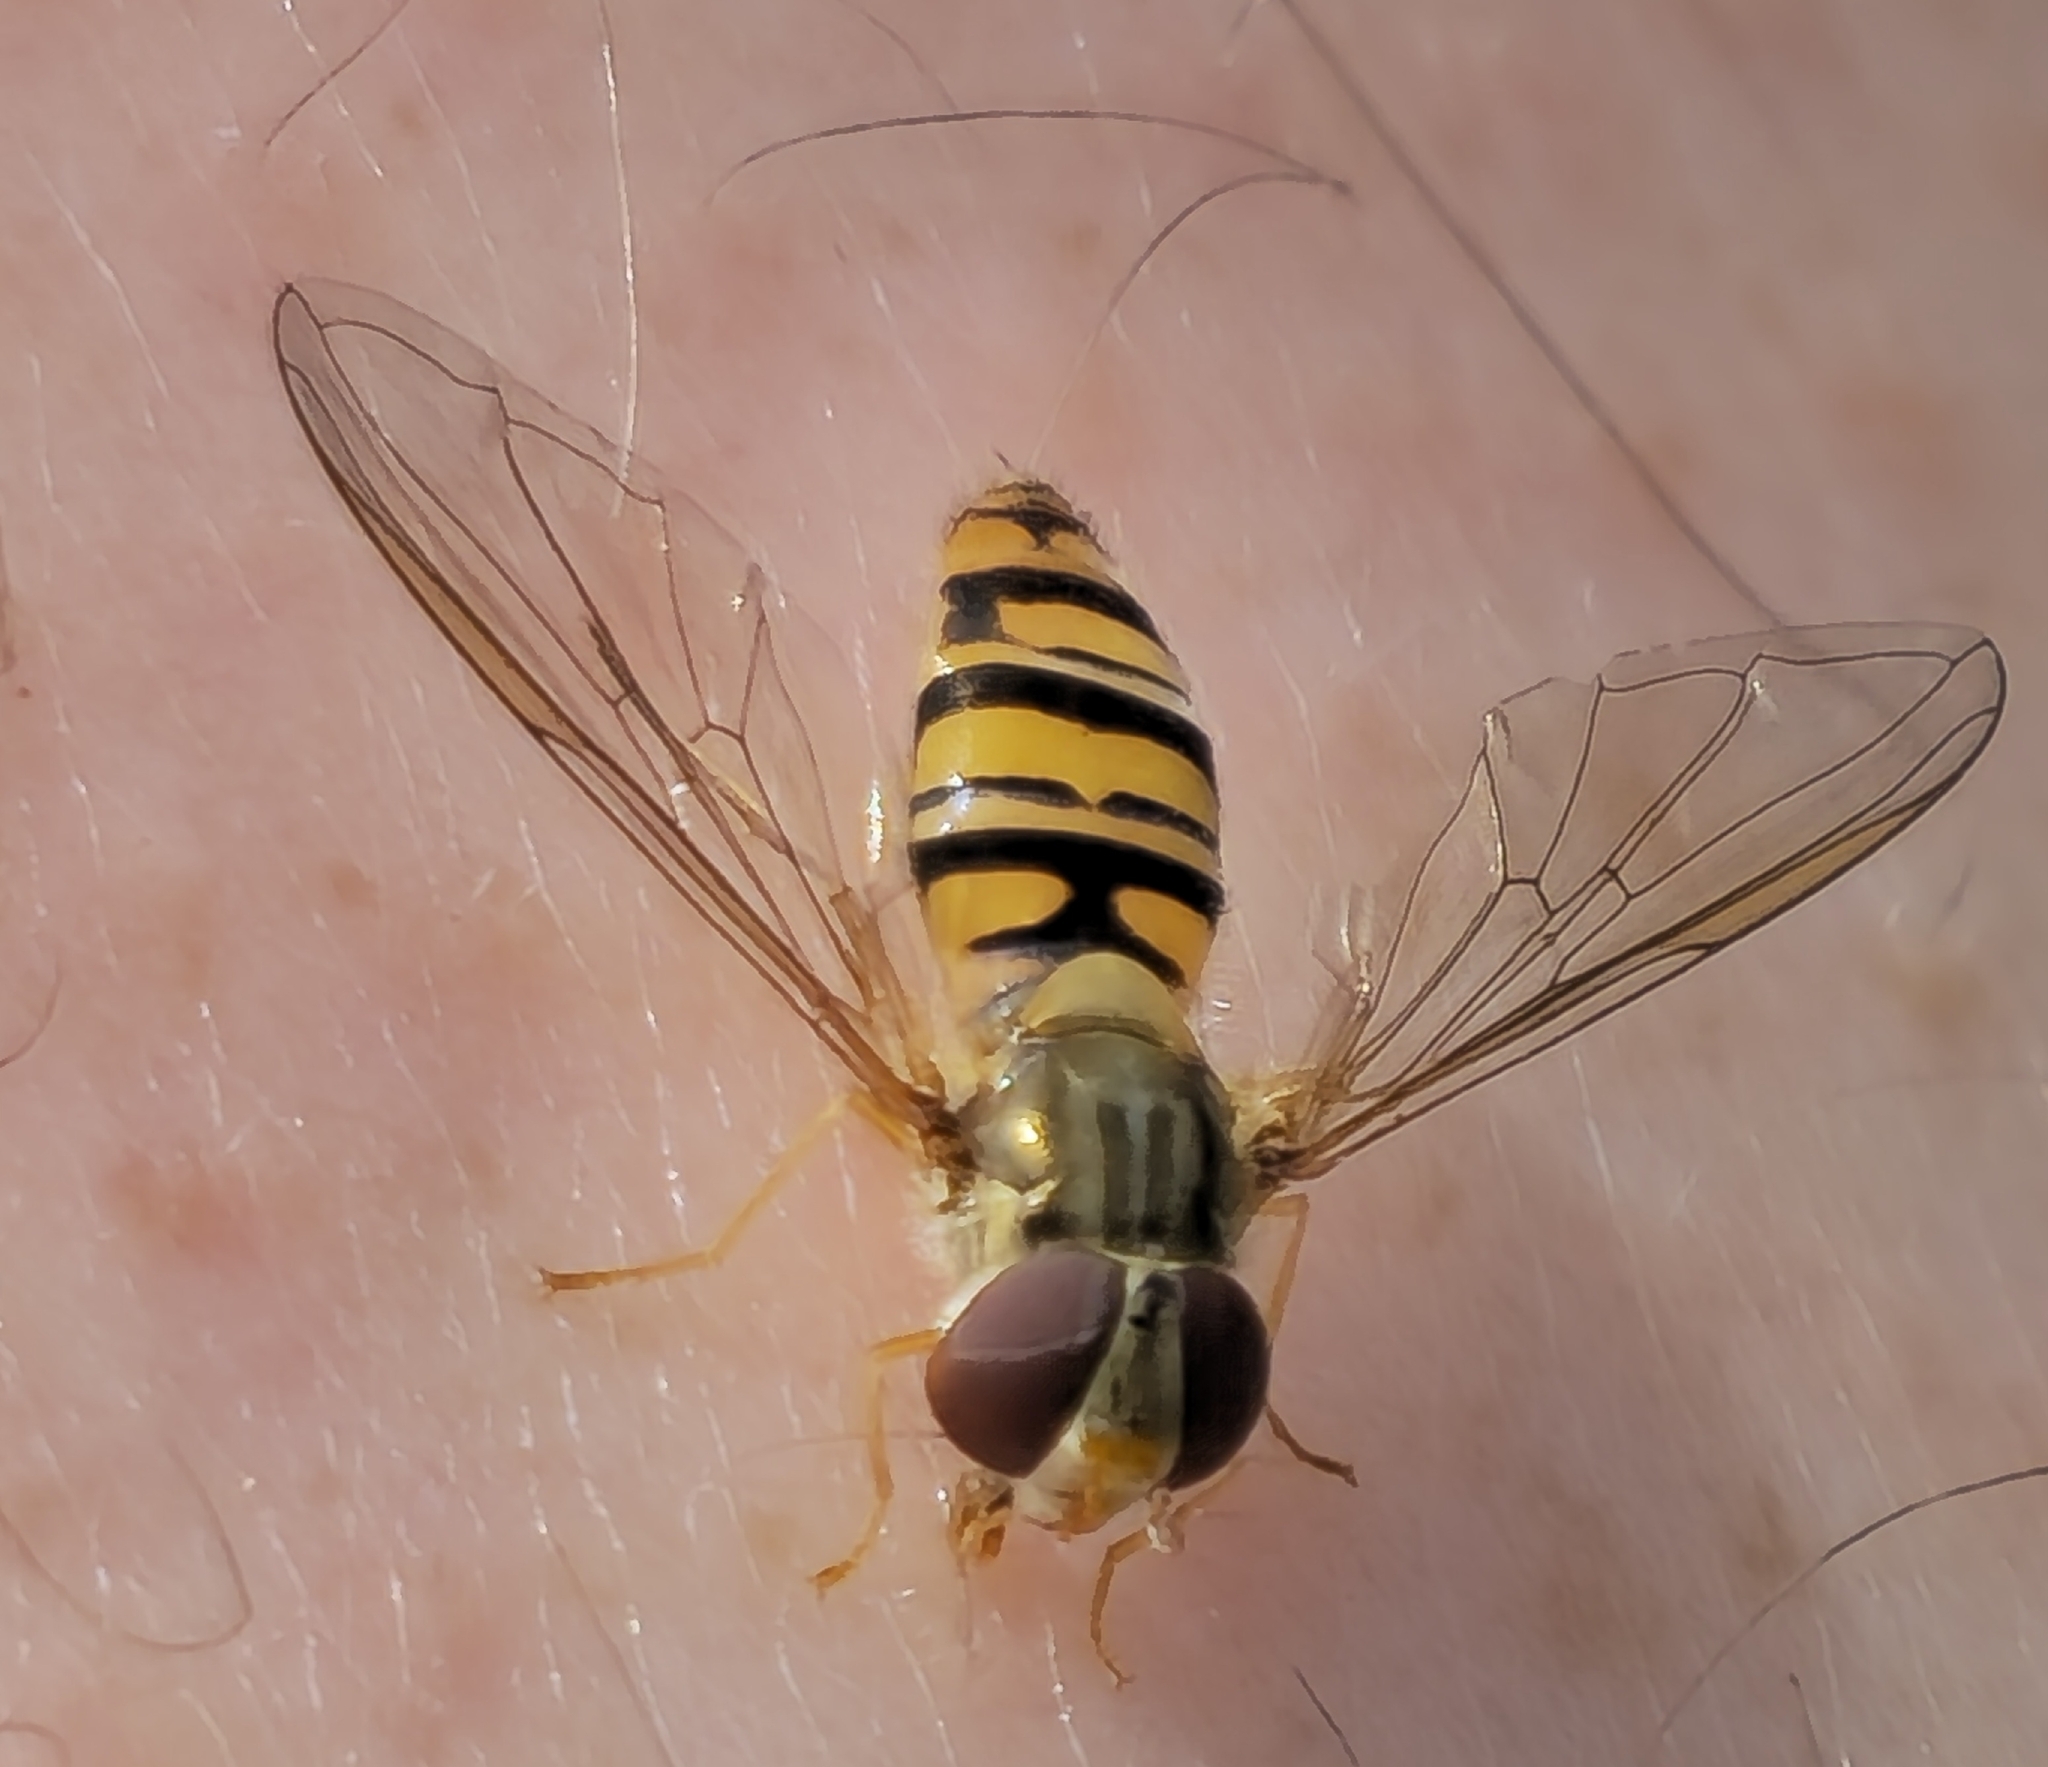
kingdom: Animalia
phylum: Arthropoda
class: Insecta
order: Diptera
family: Syrphidae
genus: Episyrphus
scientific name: Episyrphus balteatus
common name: Marmalade hoverfly
